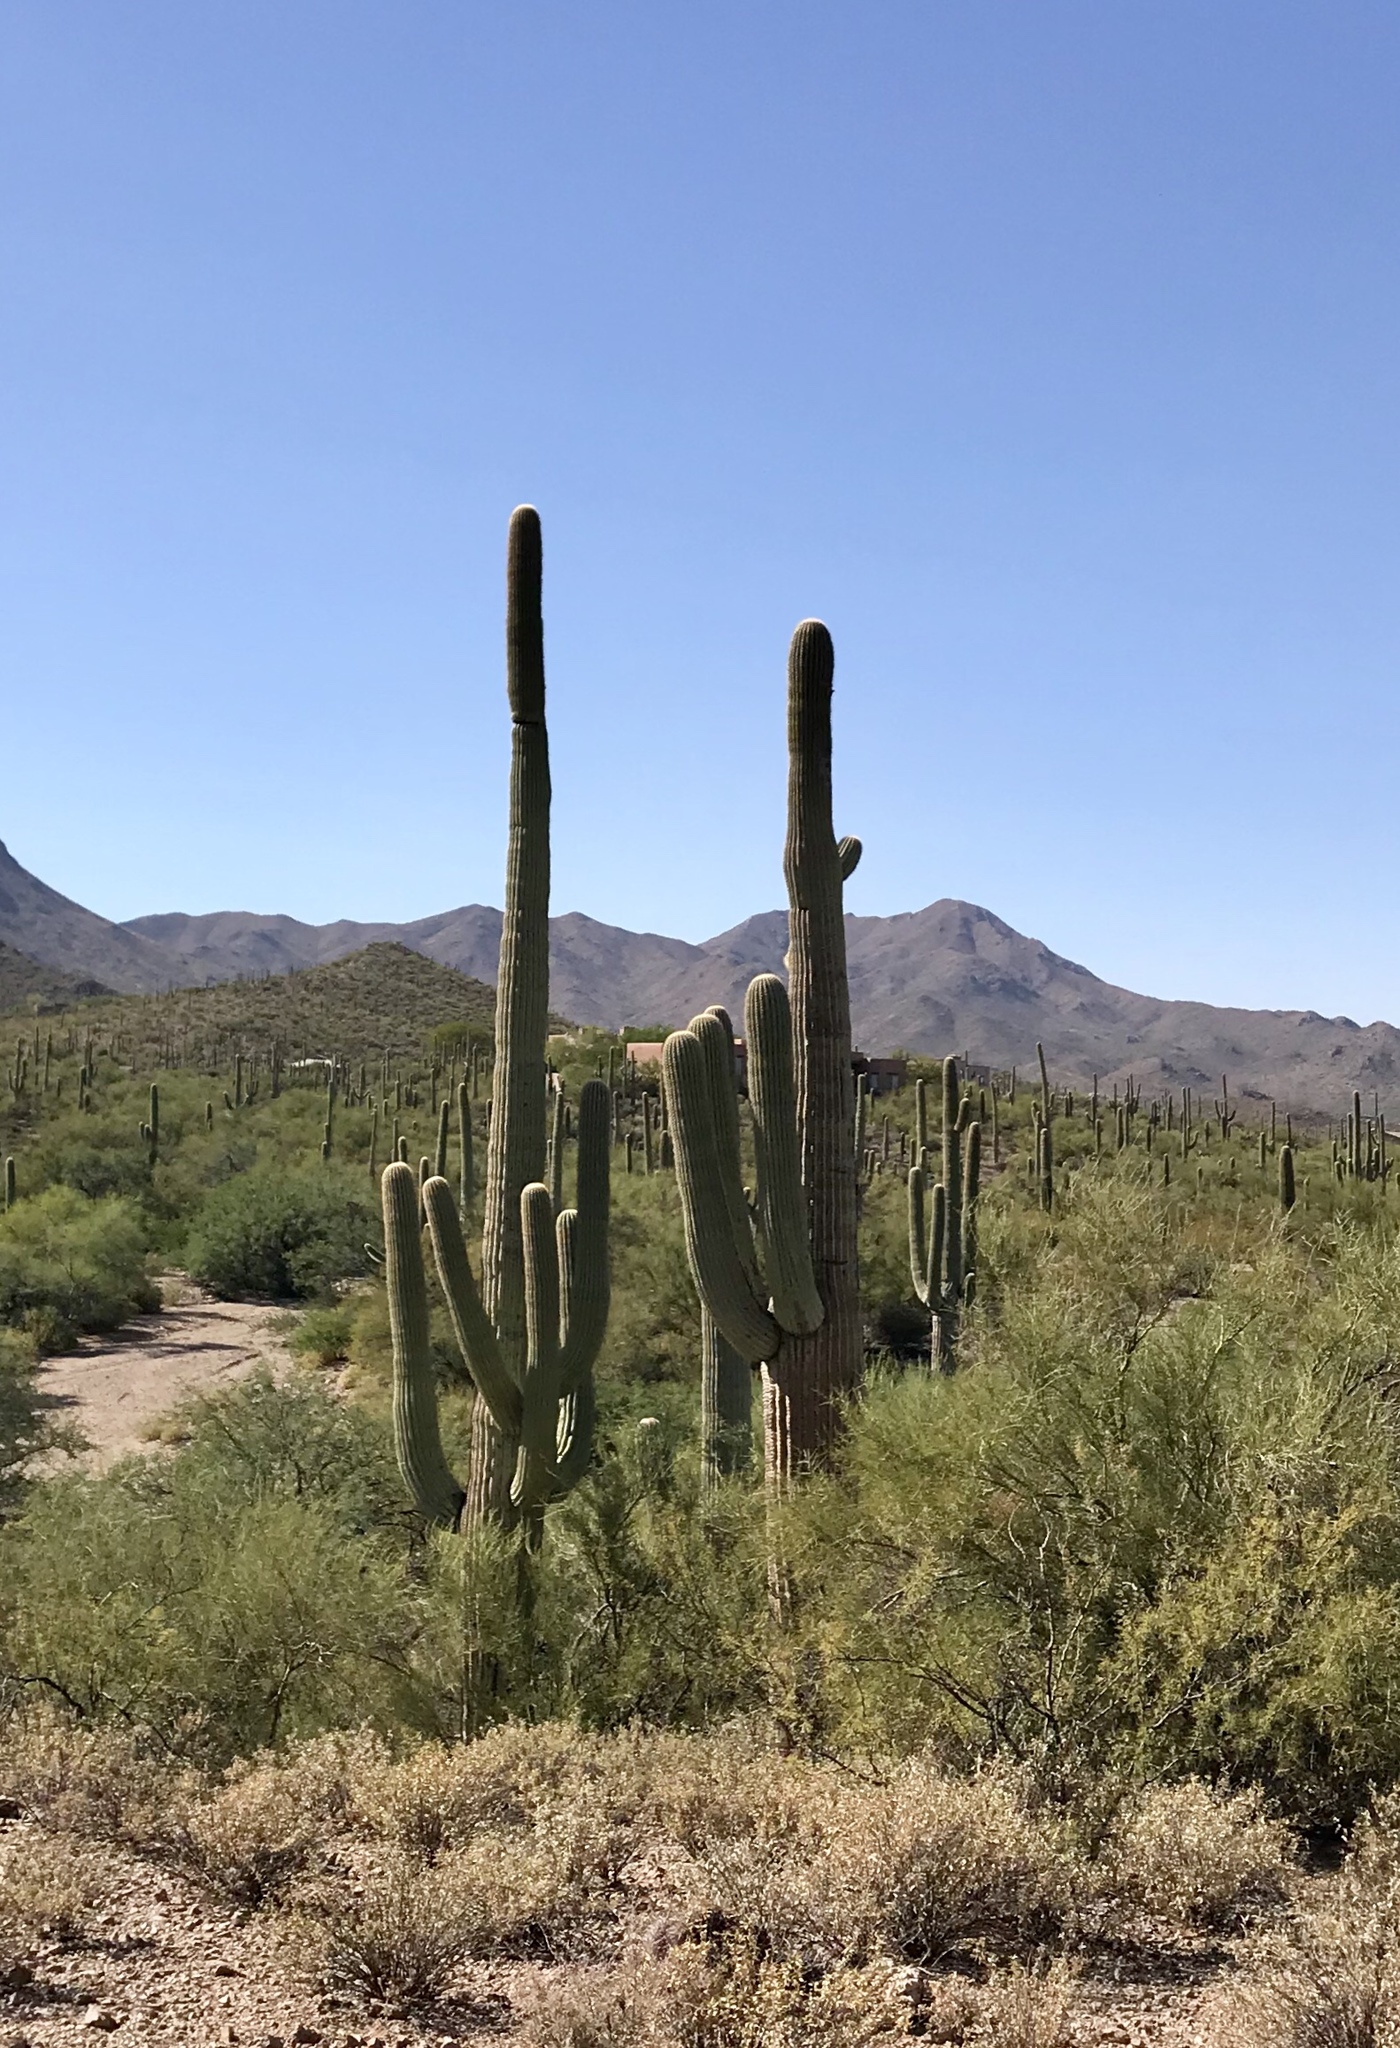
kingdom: Plantae
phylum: Tracheophyta
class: Magnoliopsida
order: Caryophyllales
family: Cactaceae
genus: Carnegiea
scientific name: Carnegiea gigantea
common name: Saguaro
